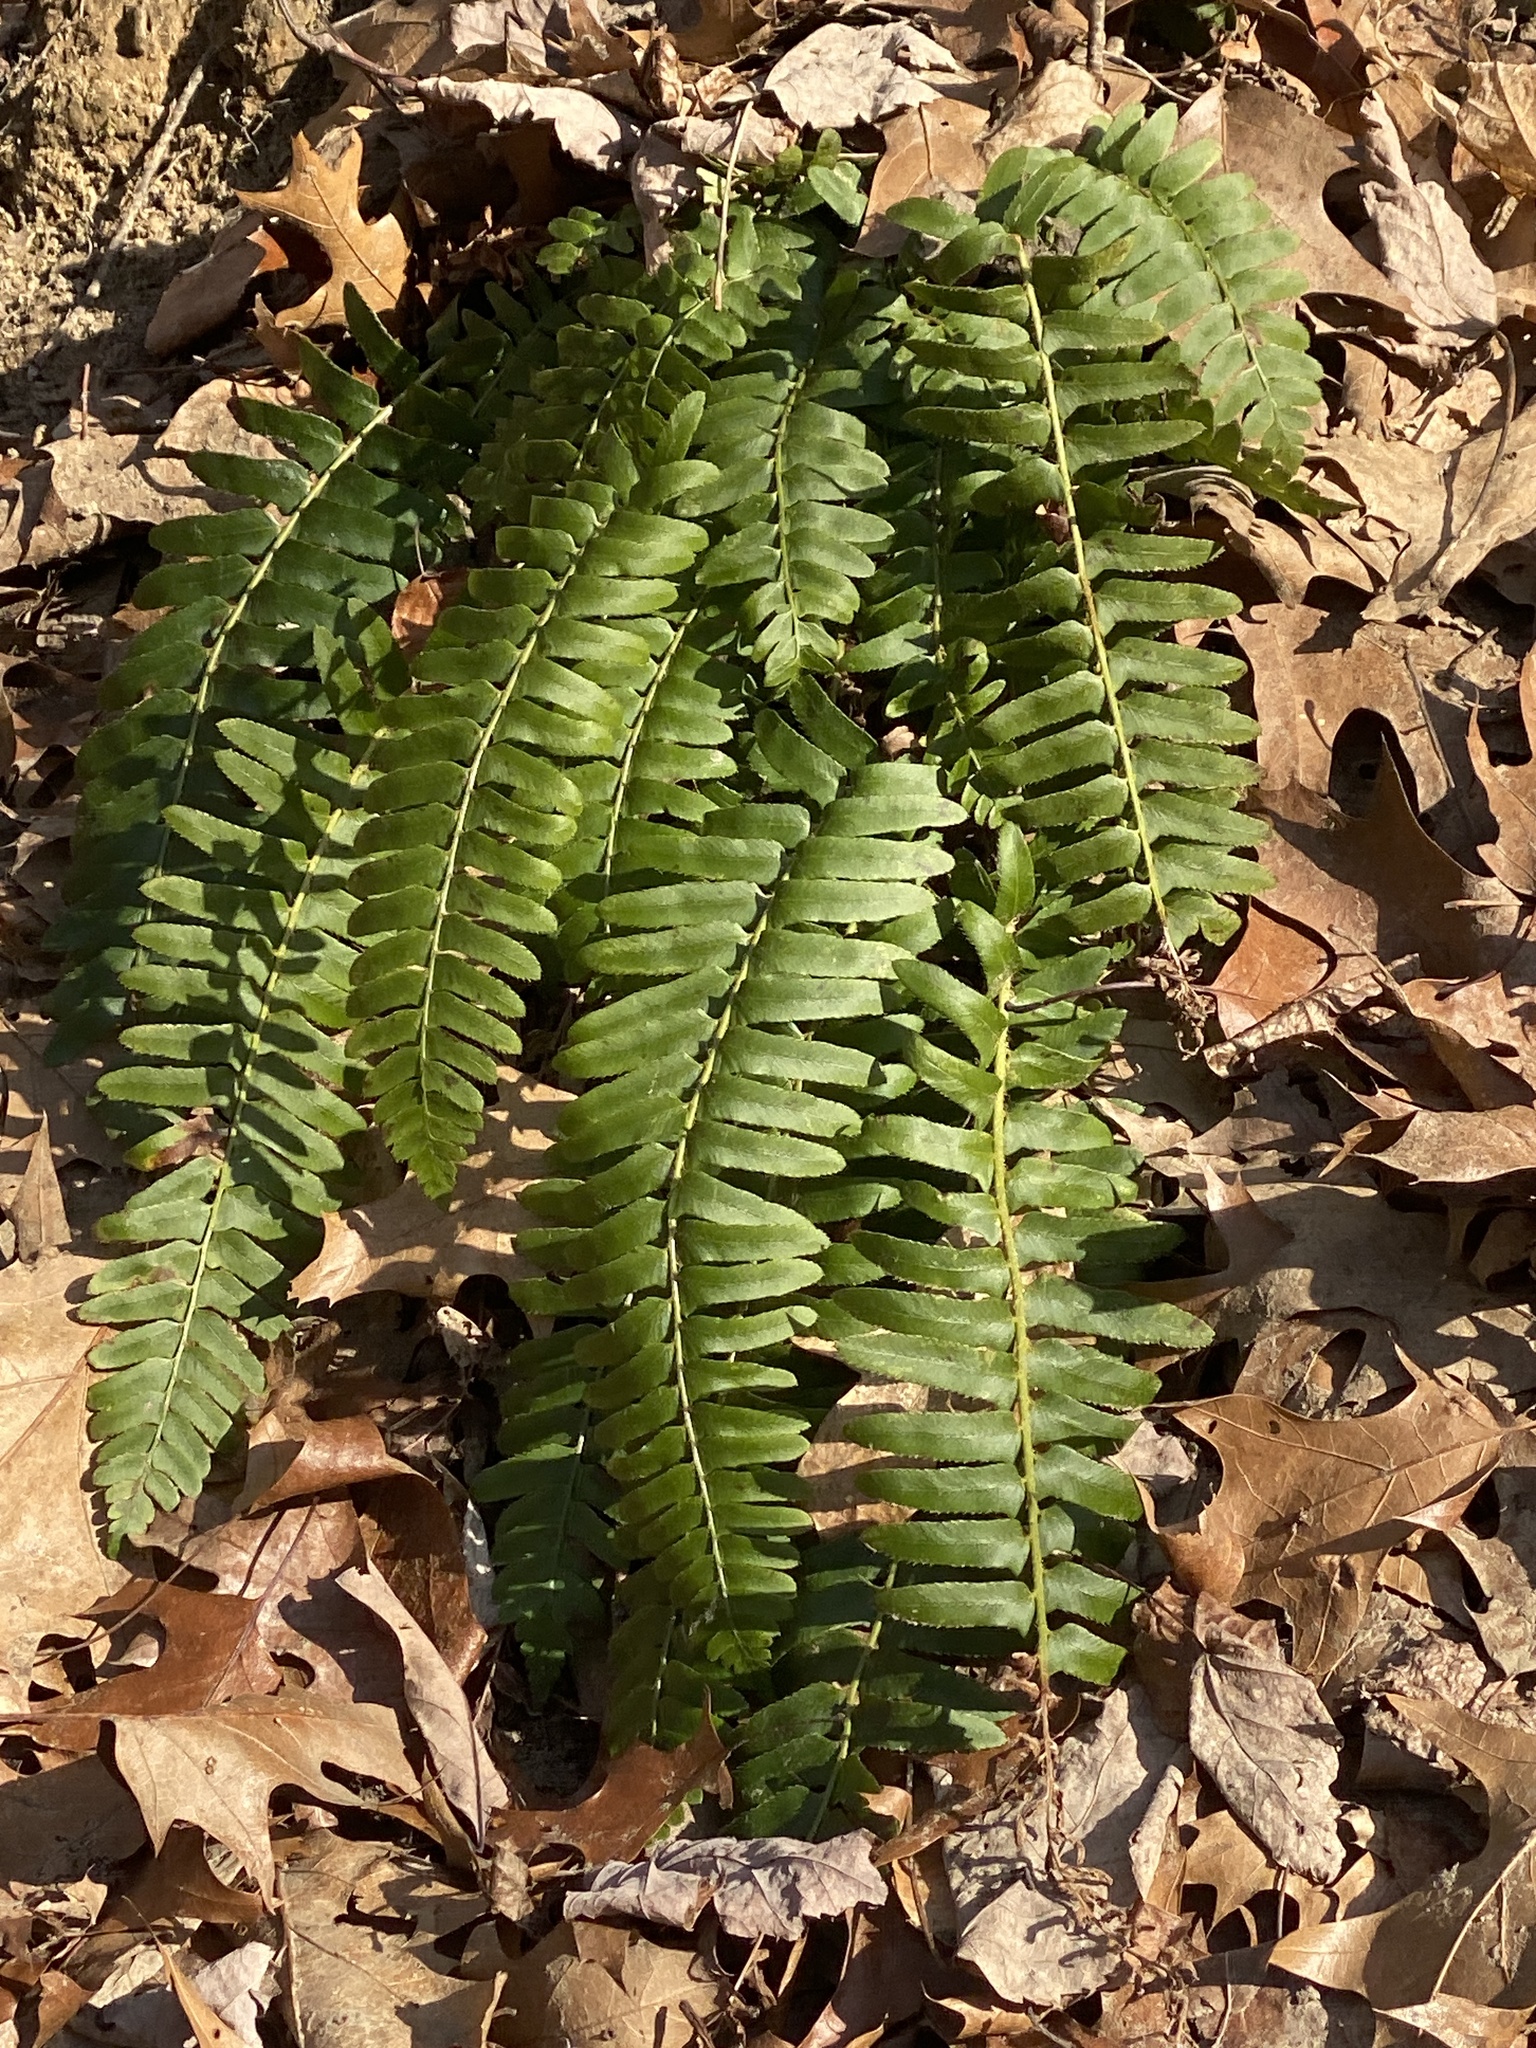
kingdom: Plantae
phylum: Tracheophyta
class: Polypodiopsida
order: Polypodiales
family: Dryopteridaceae
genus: Polystichum
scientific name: Polystichum acrostichoides
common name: Christmas fern
